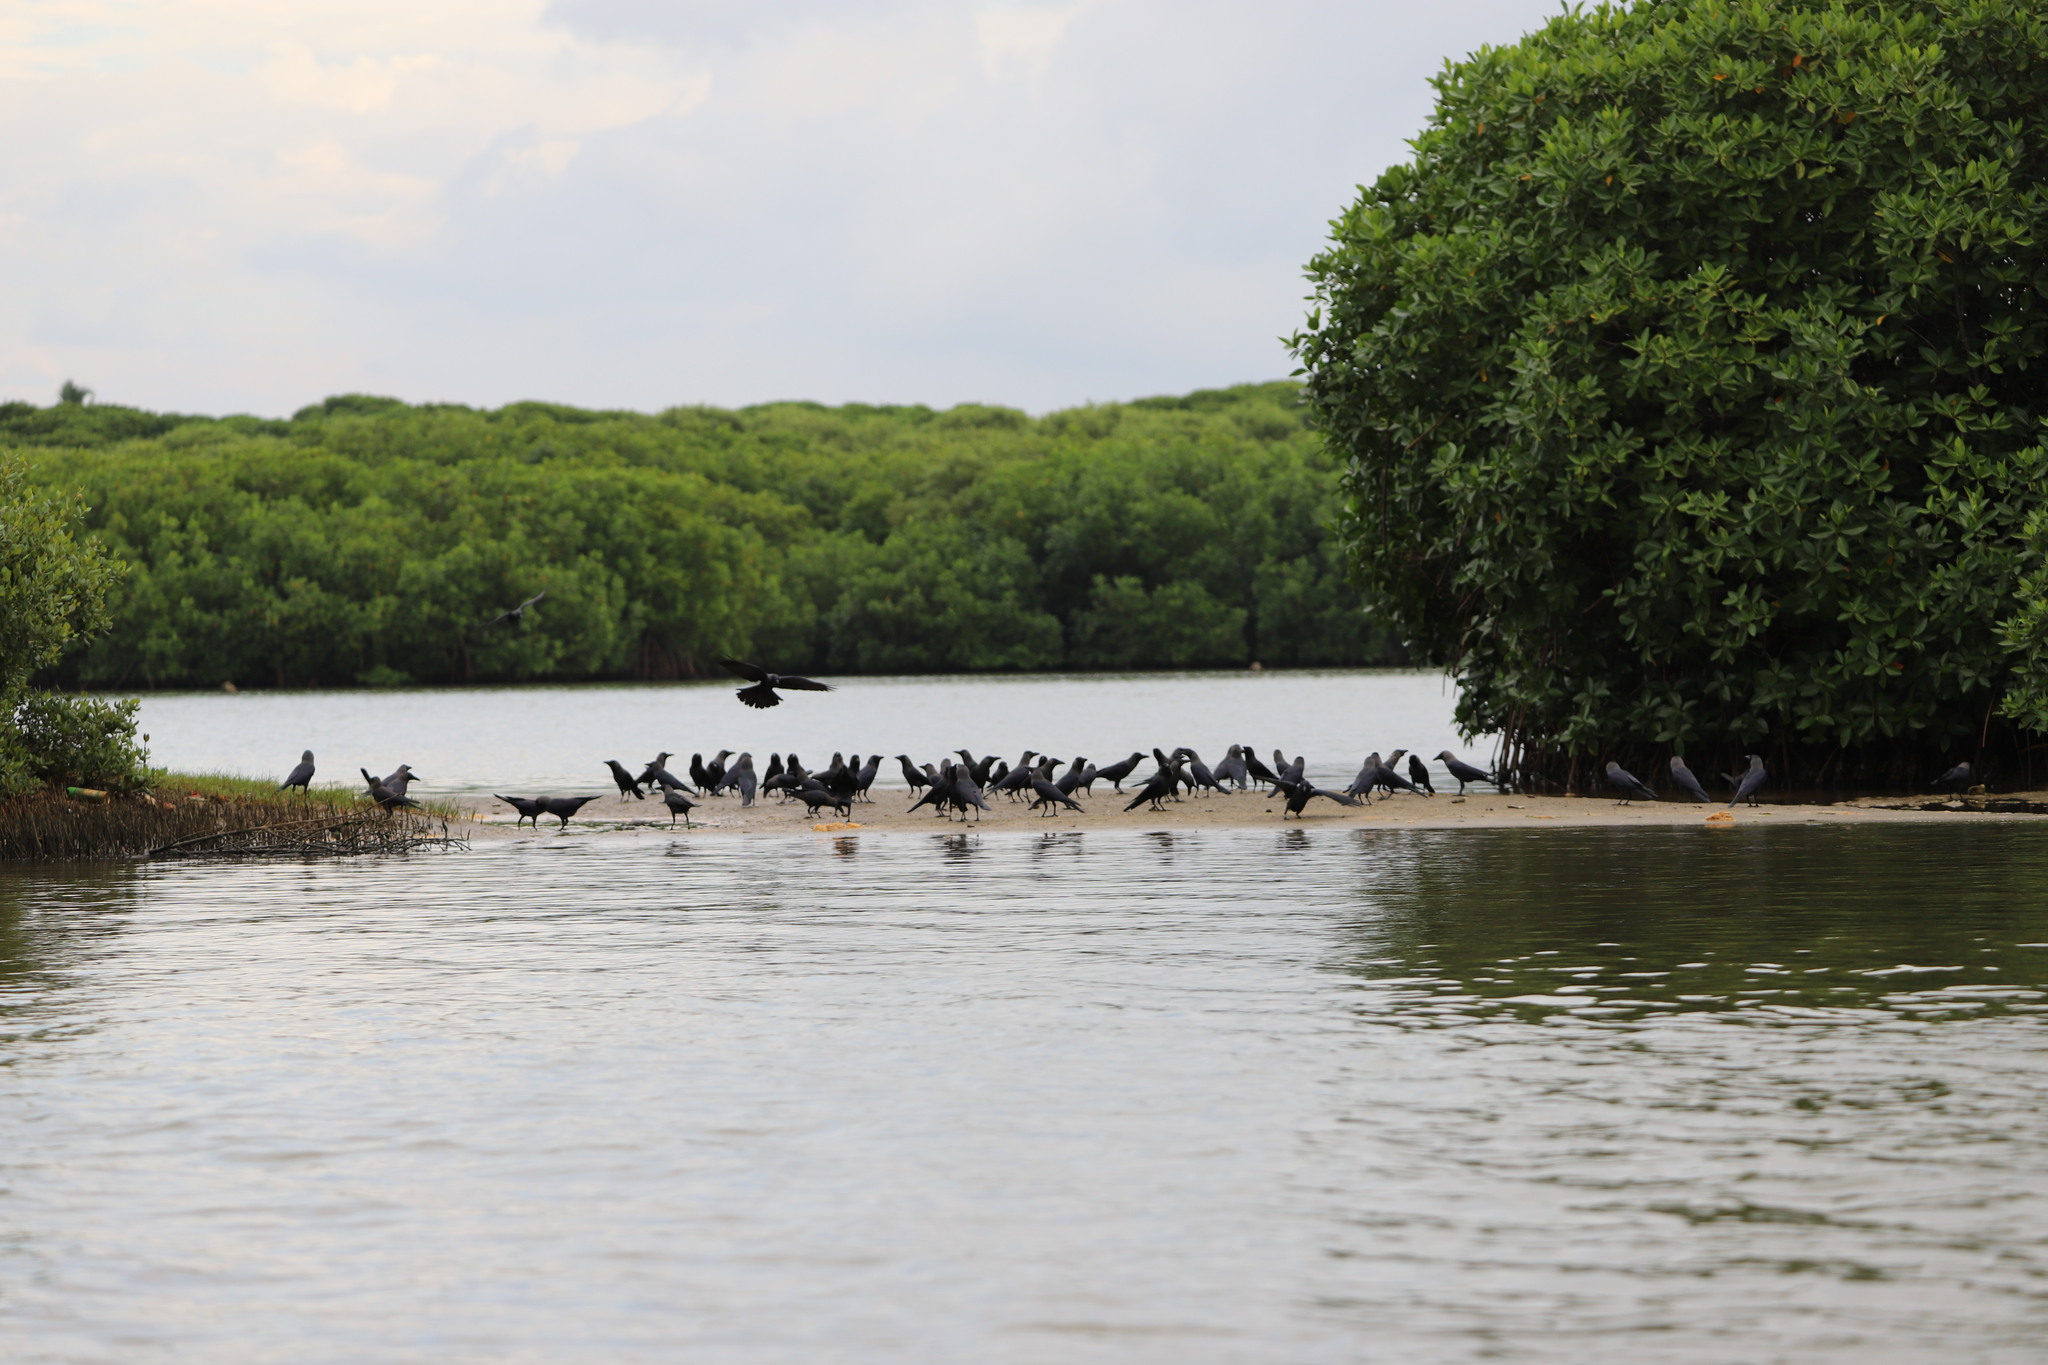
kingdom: Animalia
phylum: Chordata
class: Aves
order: Passeriformes
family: Corvidae
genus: Corvus
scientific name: Corvus splendens
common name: House crow
